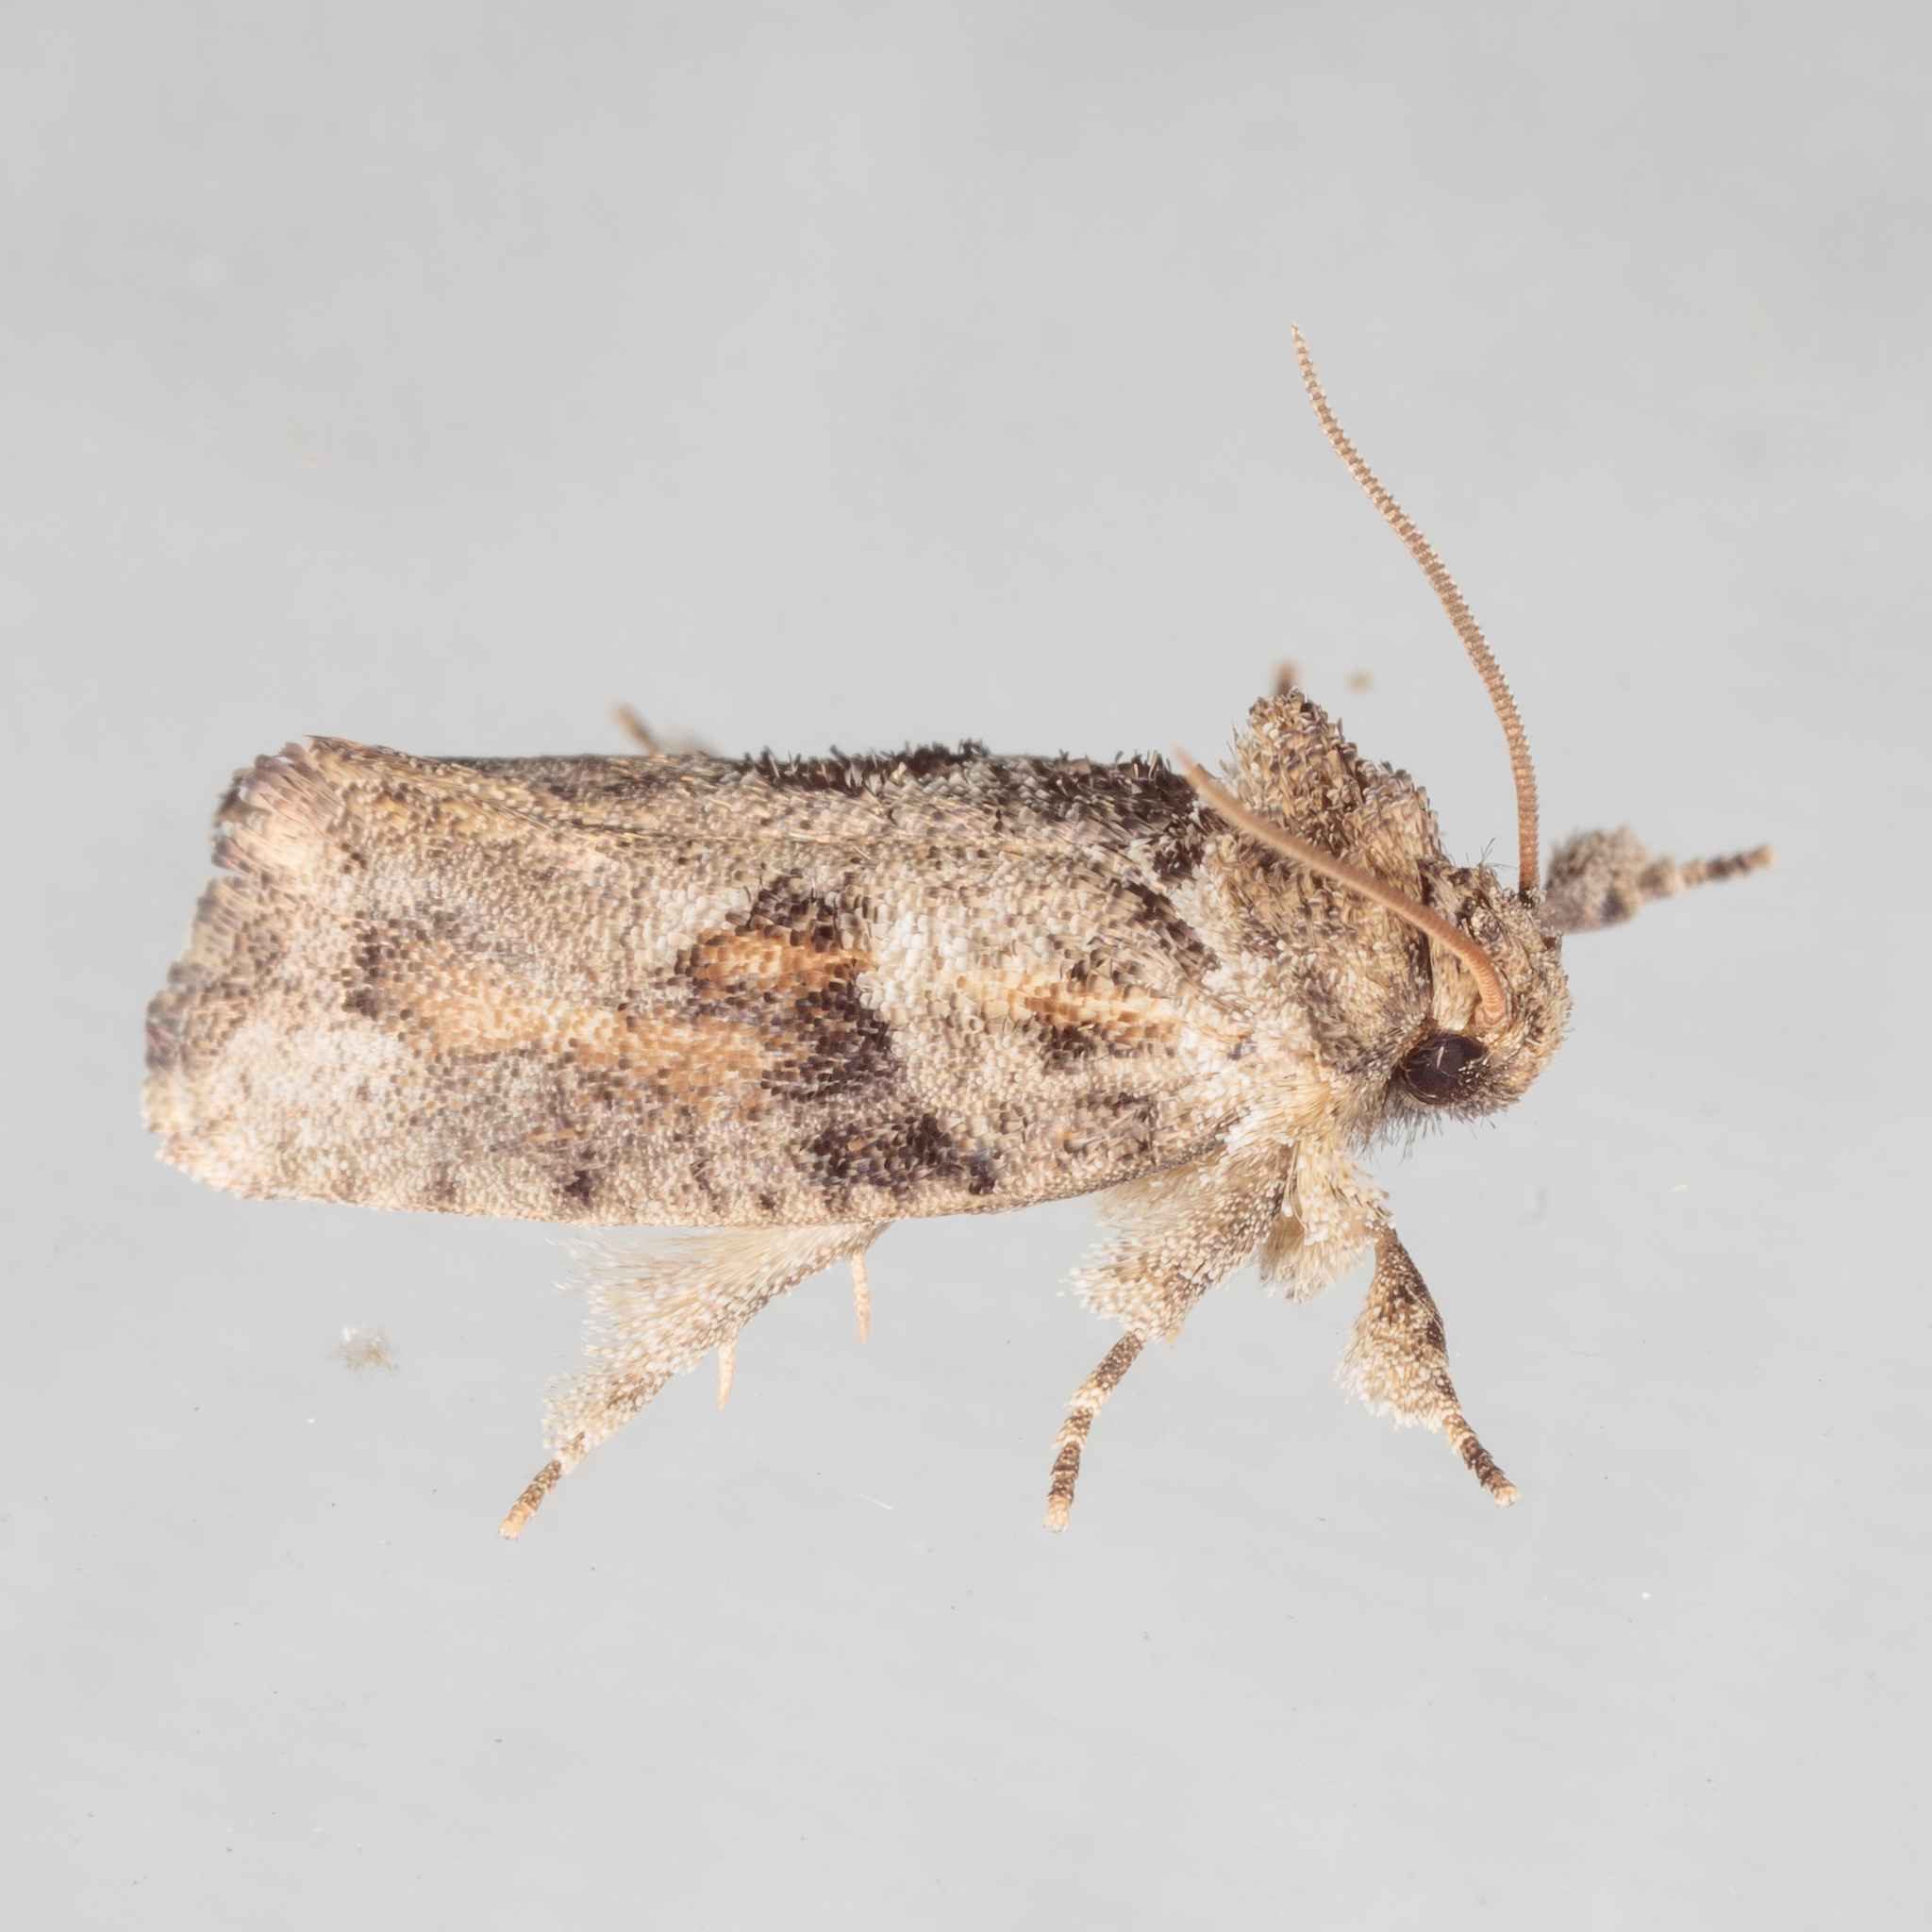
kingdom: Animalia
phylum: Arthropoda
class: Insecta
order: Lepidoptera
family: Tineidae
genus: Acrolophus
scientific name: Acrolophus piger
